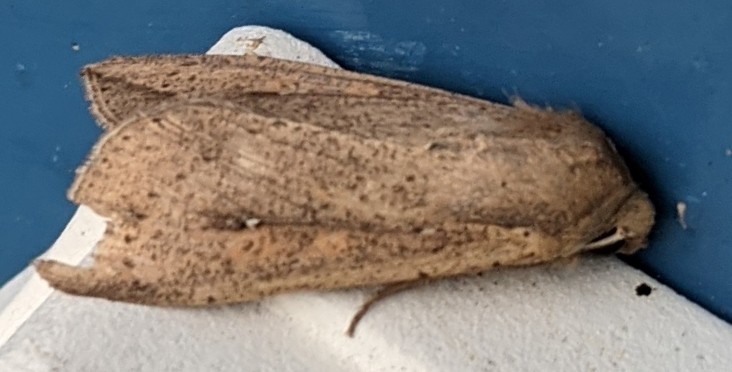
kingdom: Animalia
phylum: Arthropoda
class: Insecta
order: Lepidoptera
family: Noctuidae
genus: Mythimna
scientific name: Mythimna unipuncta
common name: White-speck
